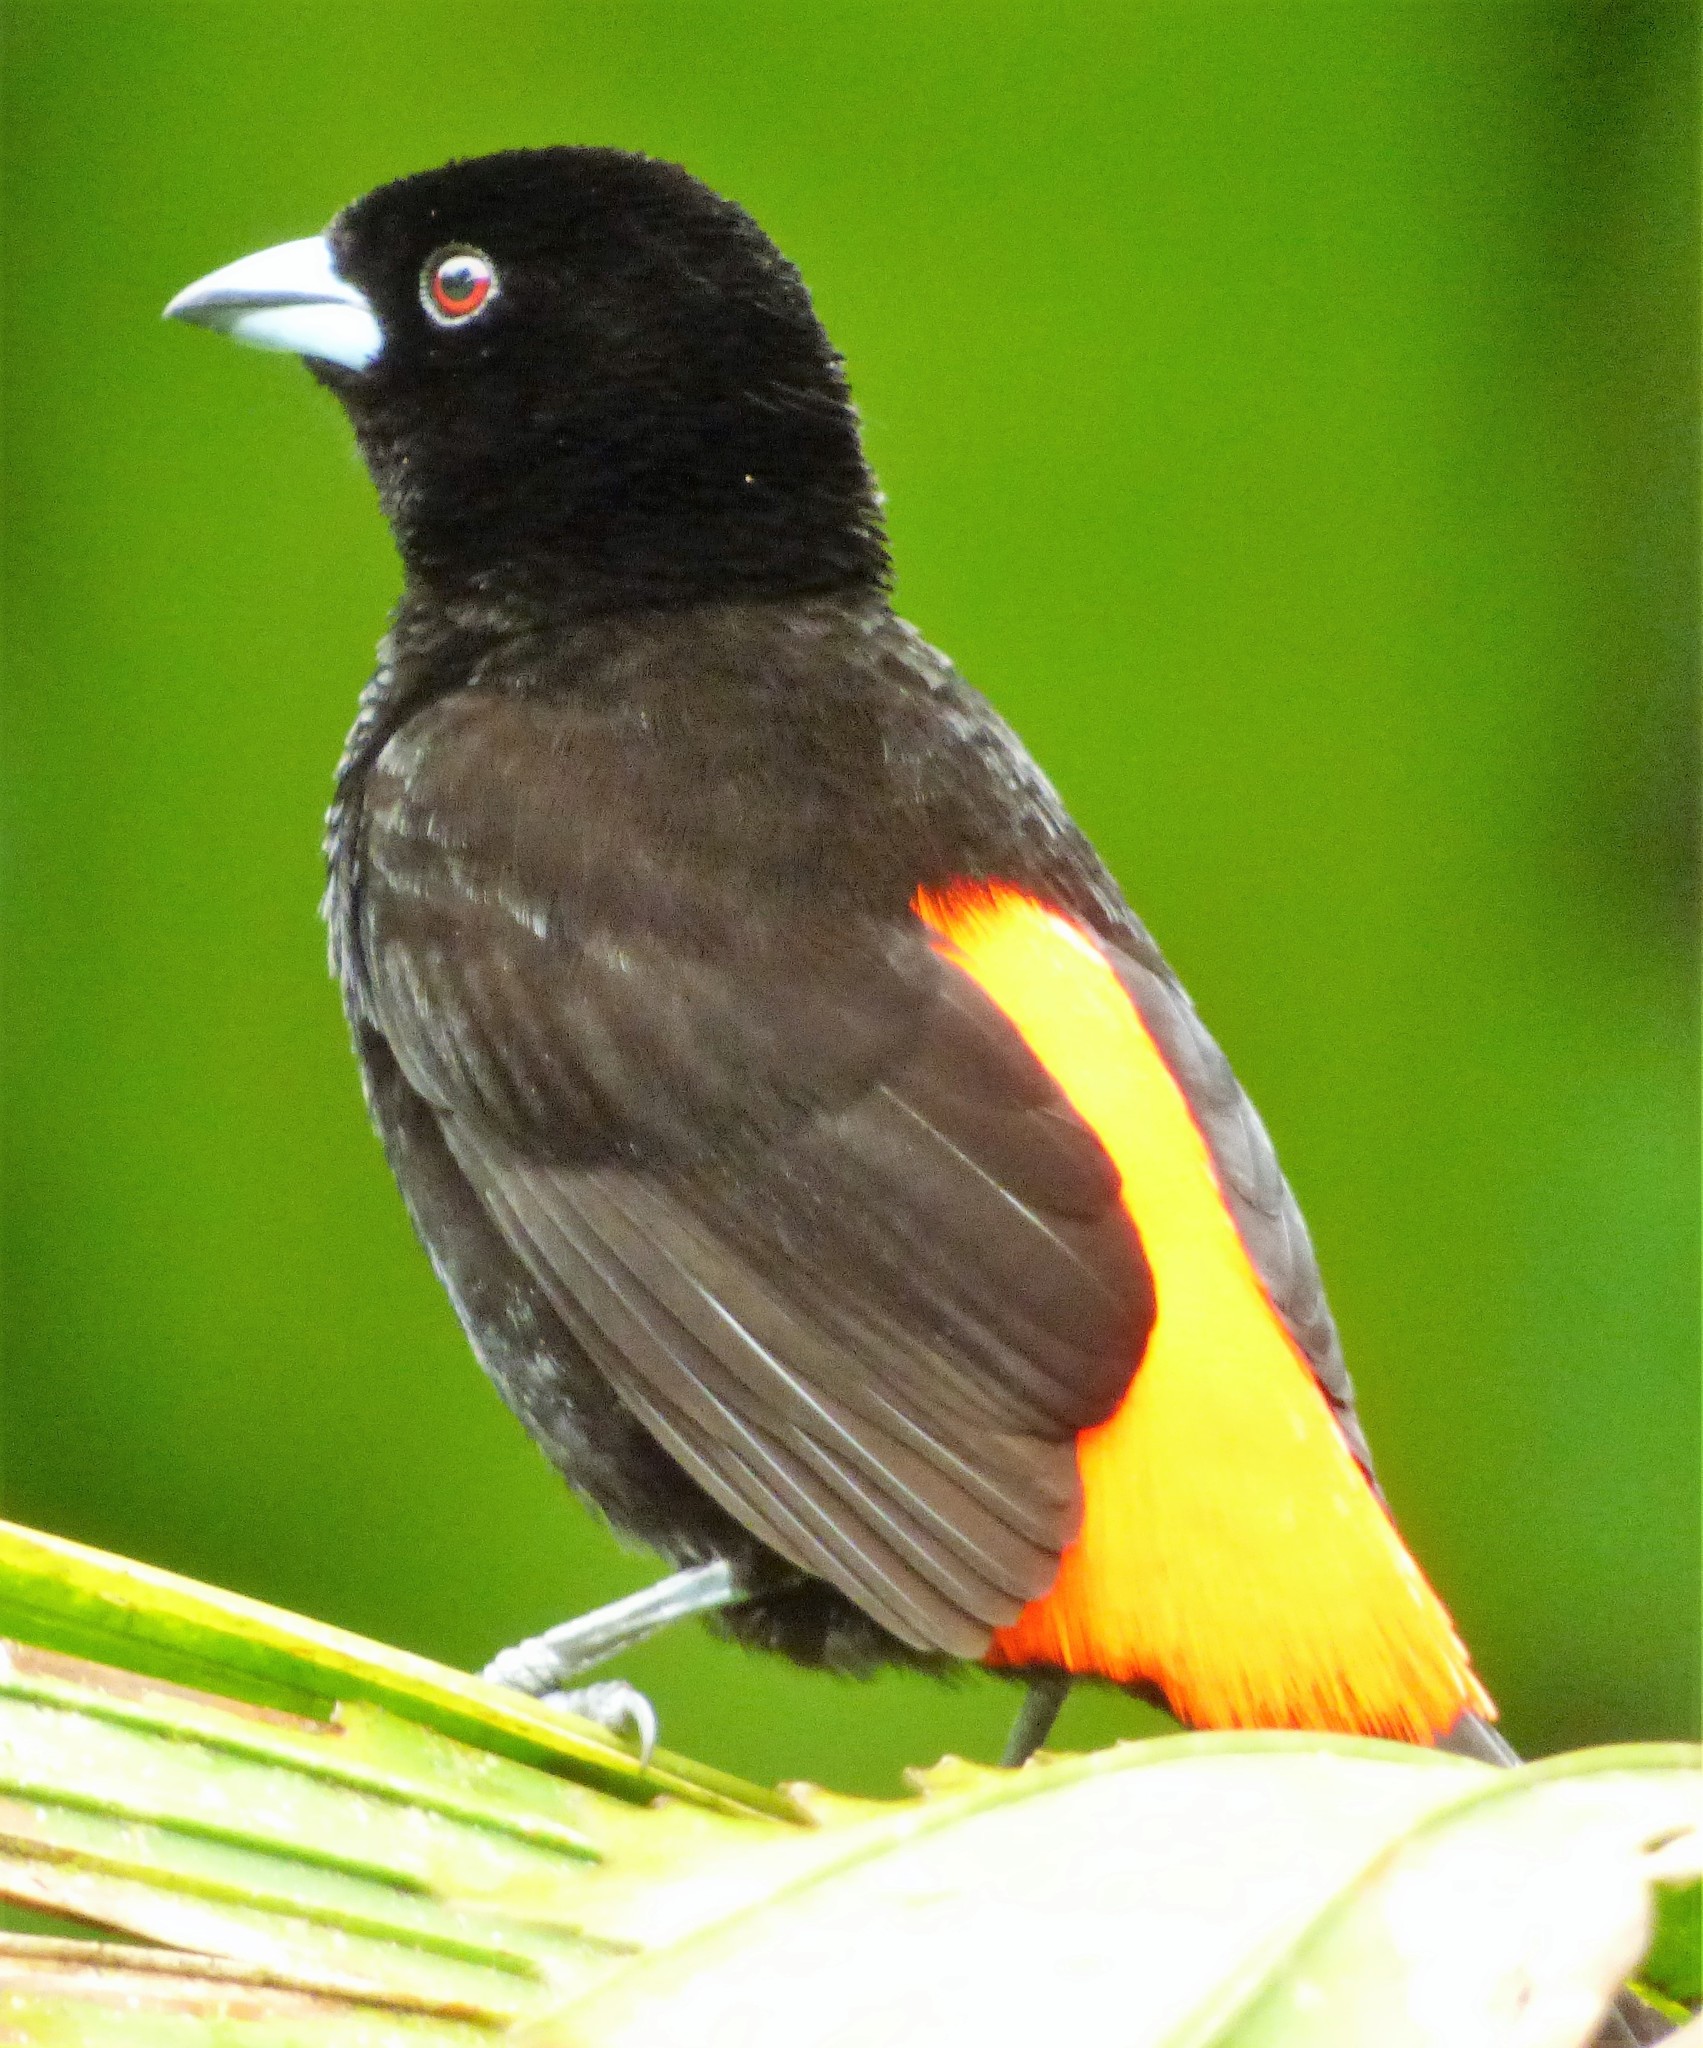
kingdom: Animalia
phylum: Chordata
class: Aves
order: Passeriformes
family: Thraupidae
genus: Ramphocelus
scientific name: Ramphocelus passerinii
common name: Passerini's tanager
